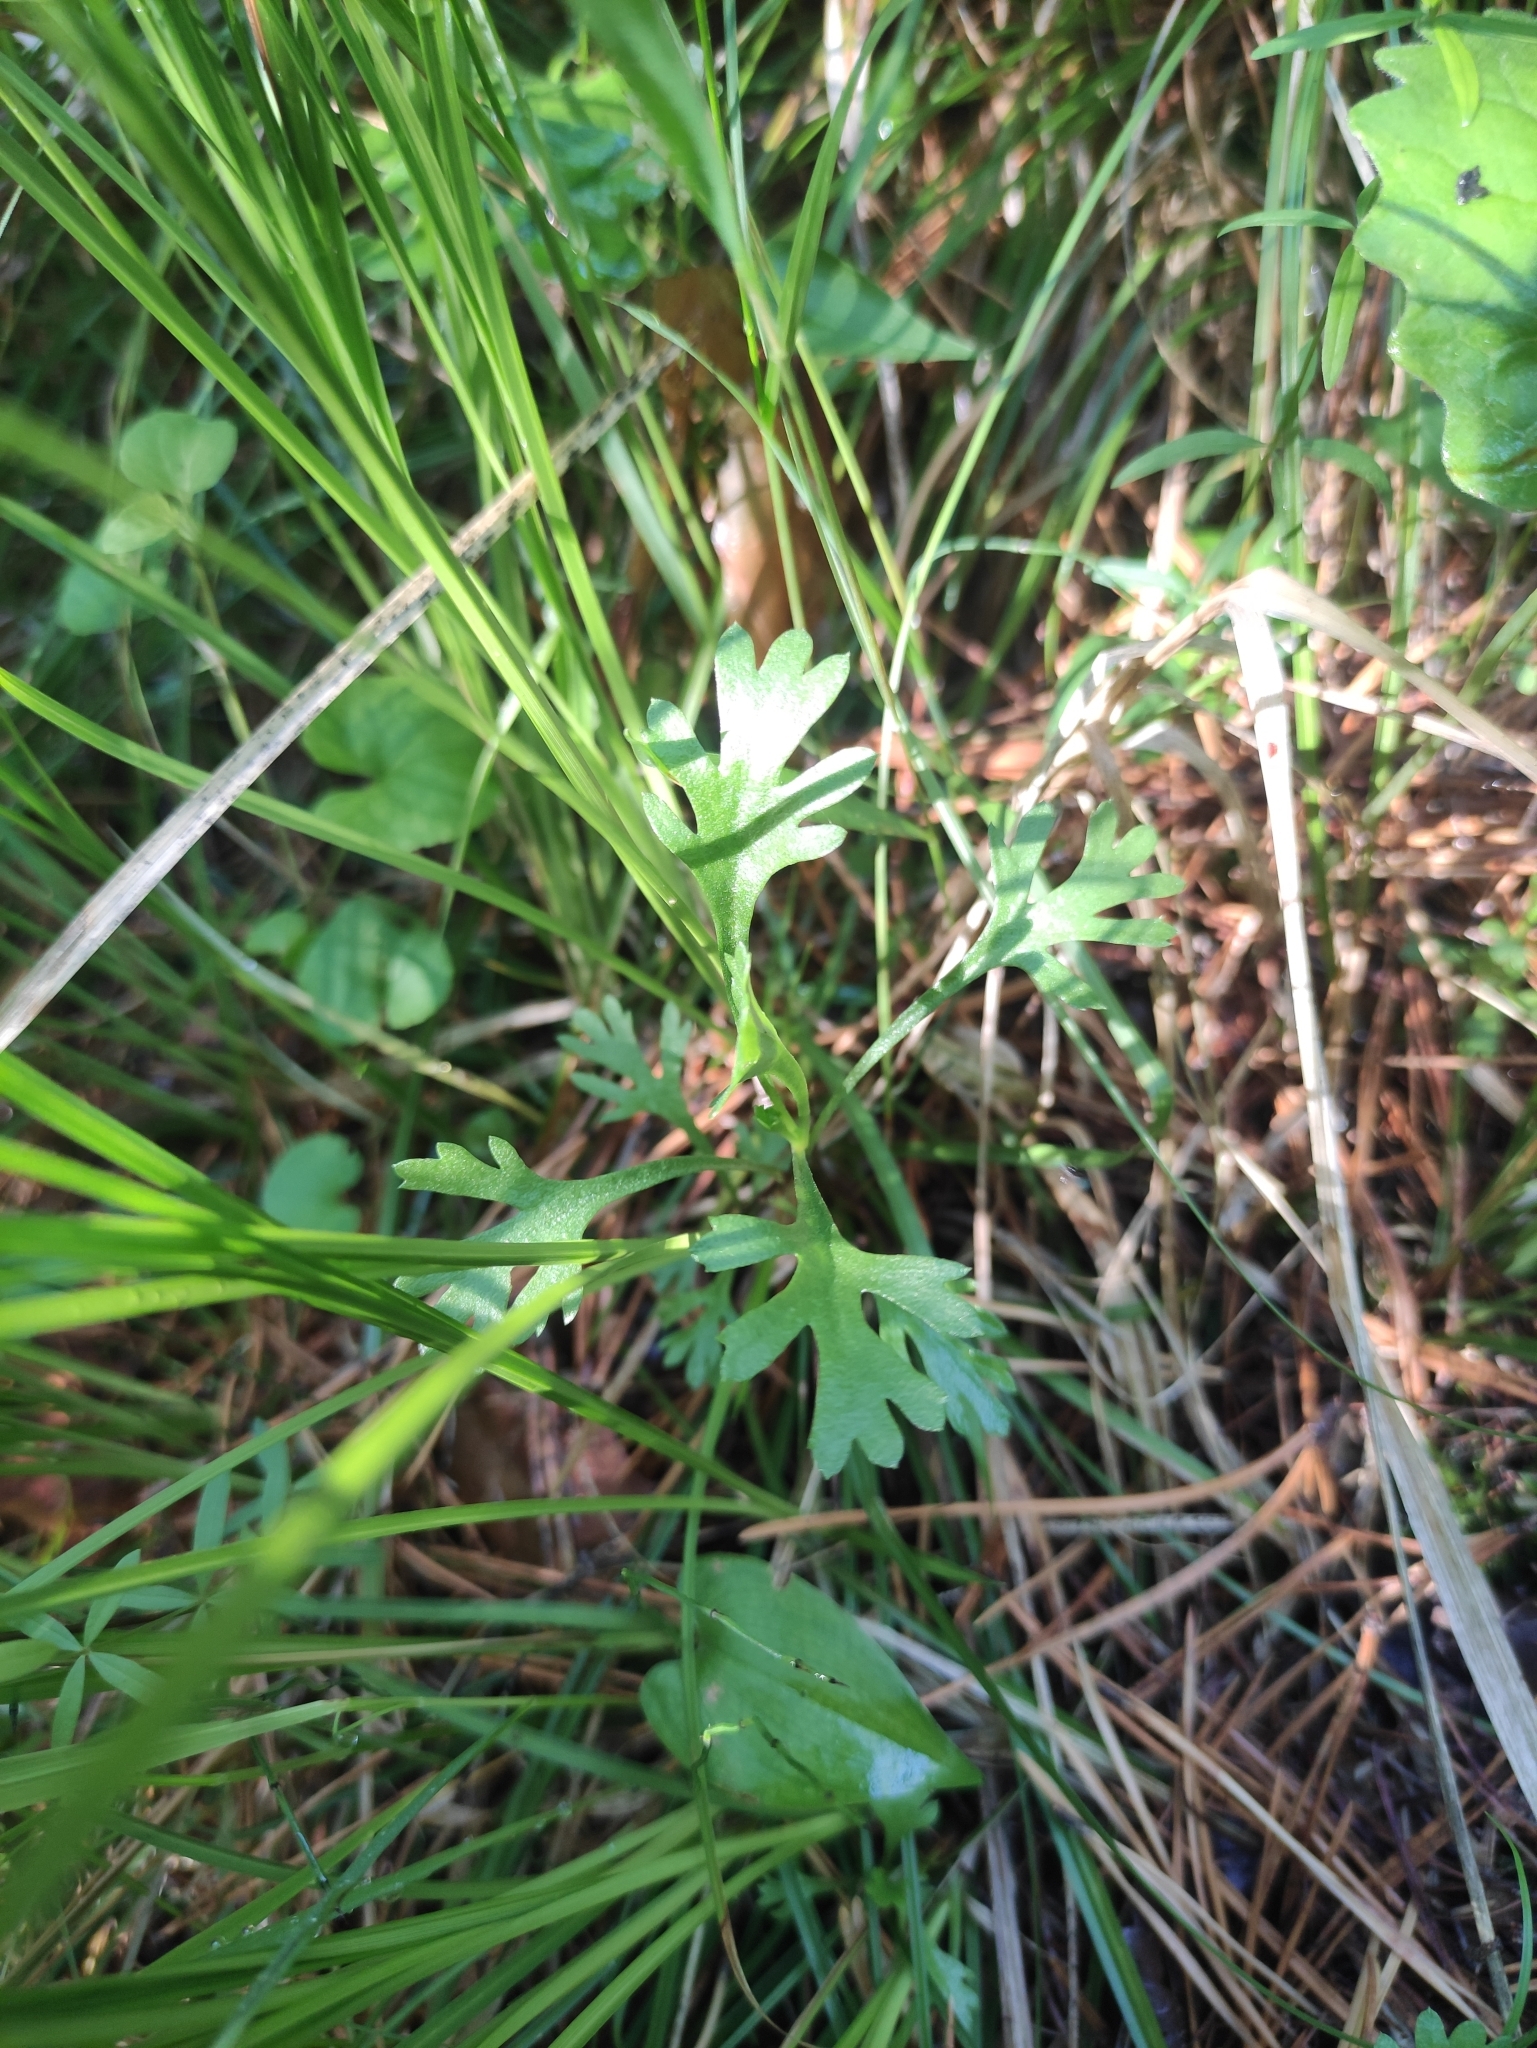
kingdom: Plantae
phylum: Tracheophyta
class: Magnoliopsida
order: Asterales
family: Asteraceae
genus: Chrysanthemum
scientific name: Chrysanthemum zawadzkii
